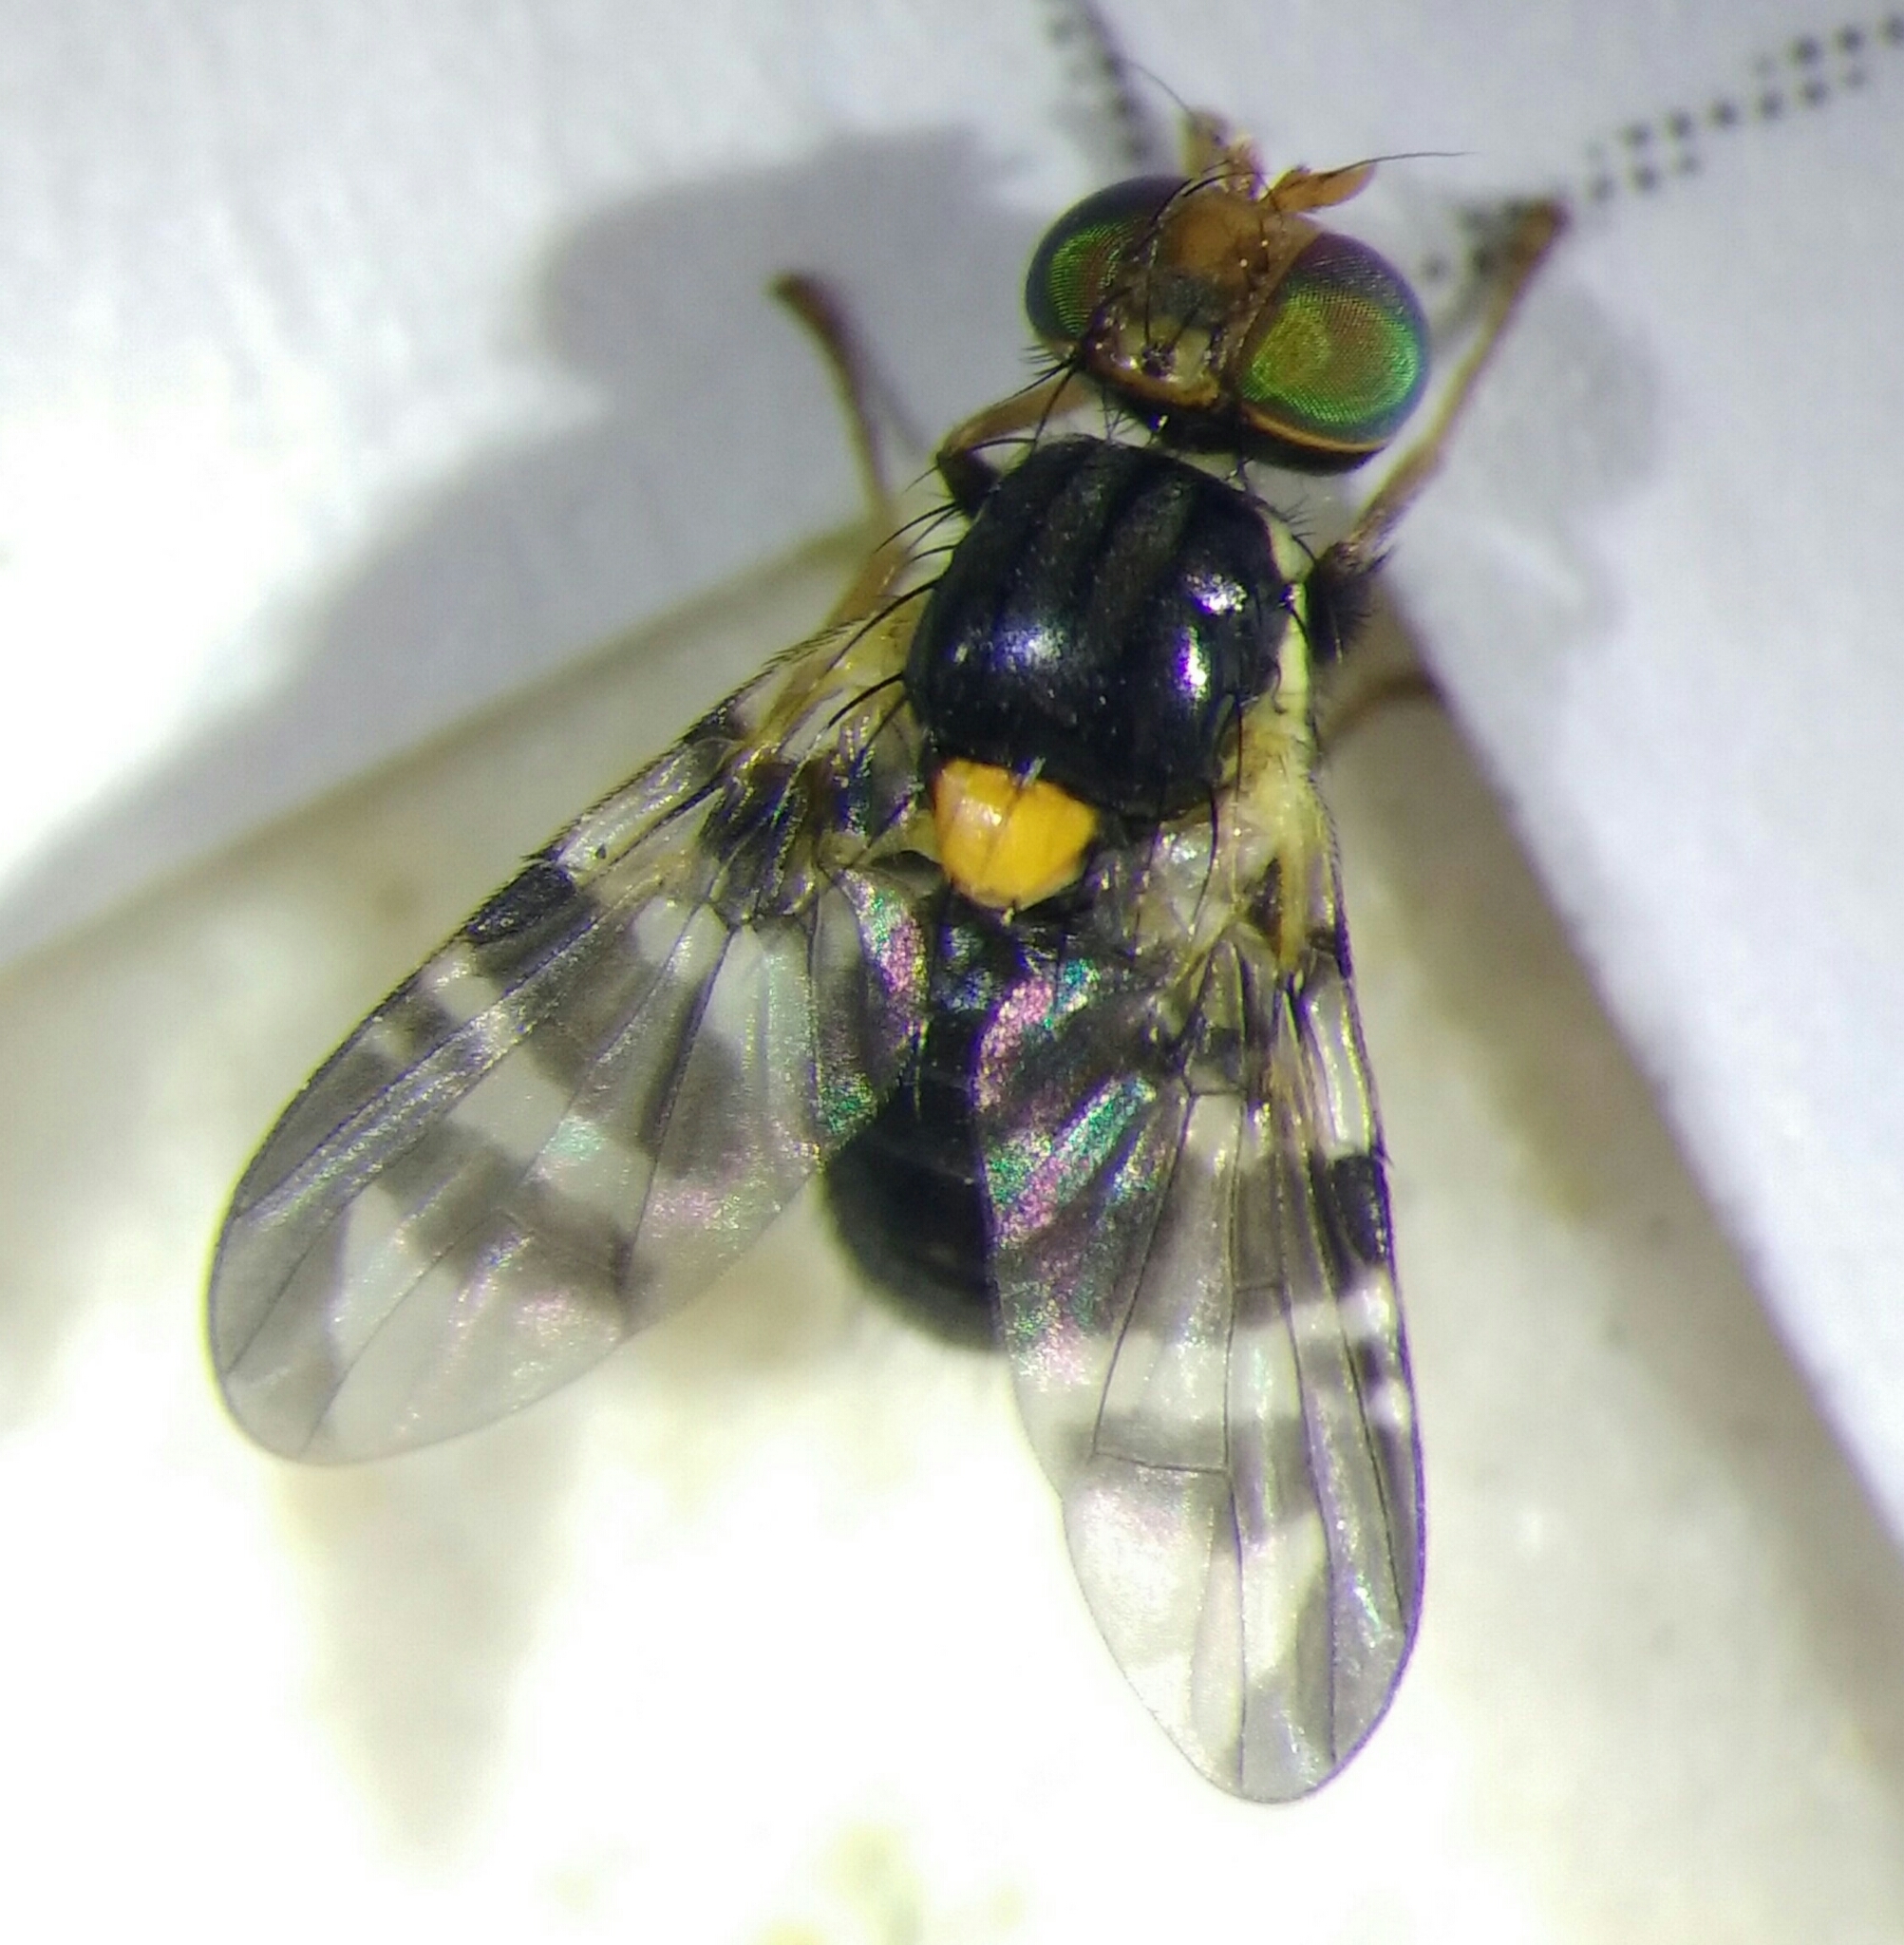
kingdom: Animalia
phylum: Arthropoda
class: Insecta
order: Diptera
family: Tephritidae
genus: Rhagoletis
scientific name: Rhagoletis cerasi
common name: European cherry fruit fly
